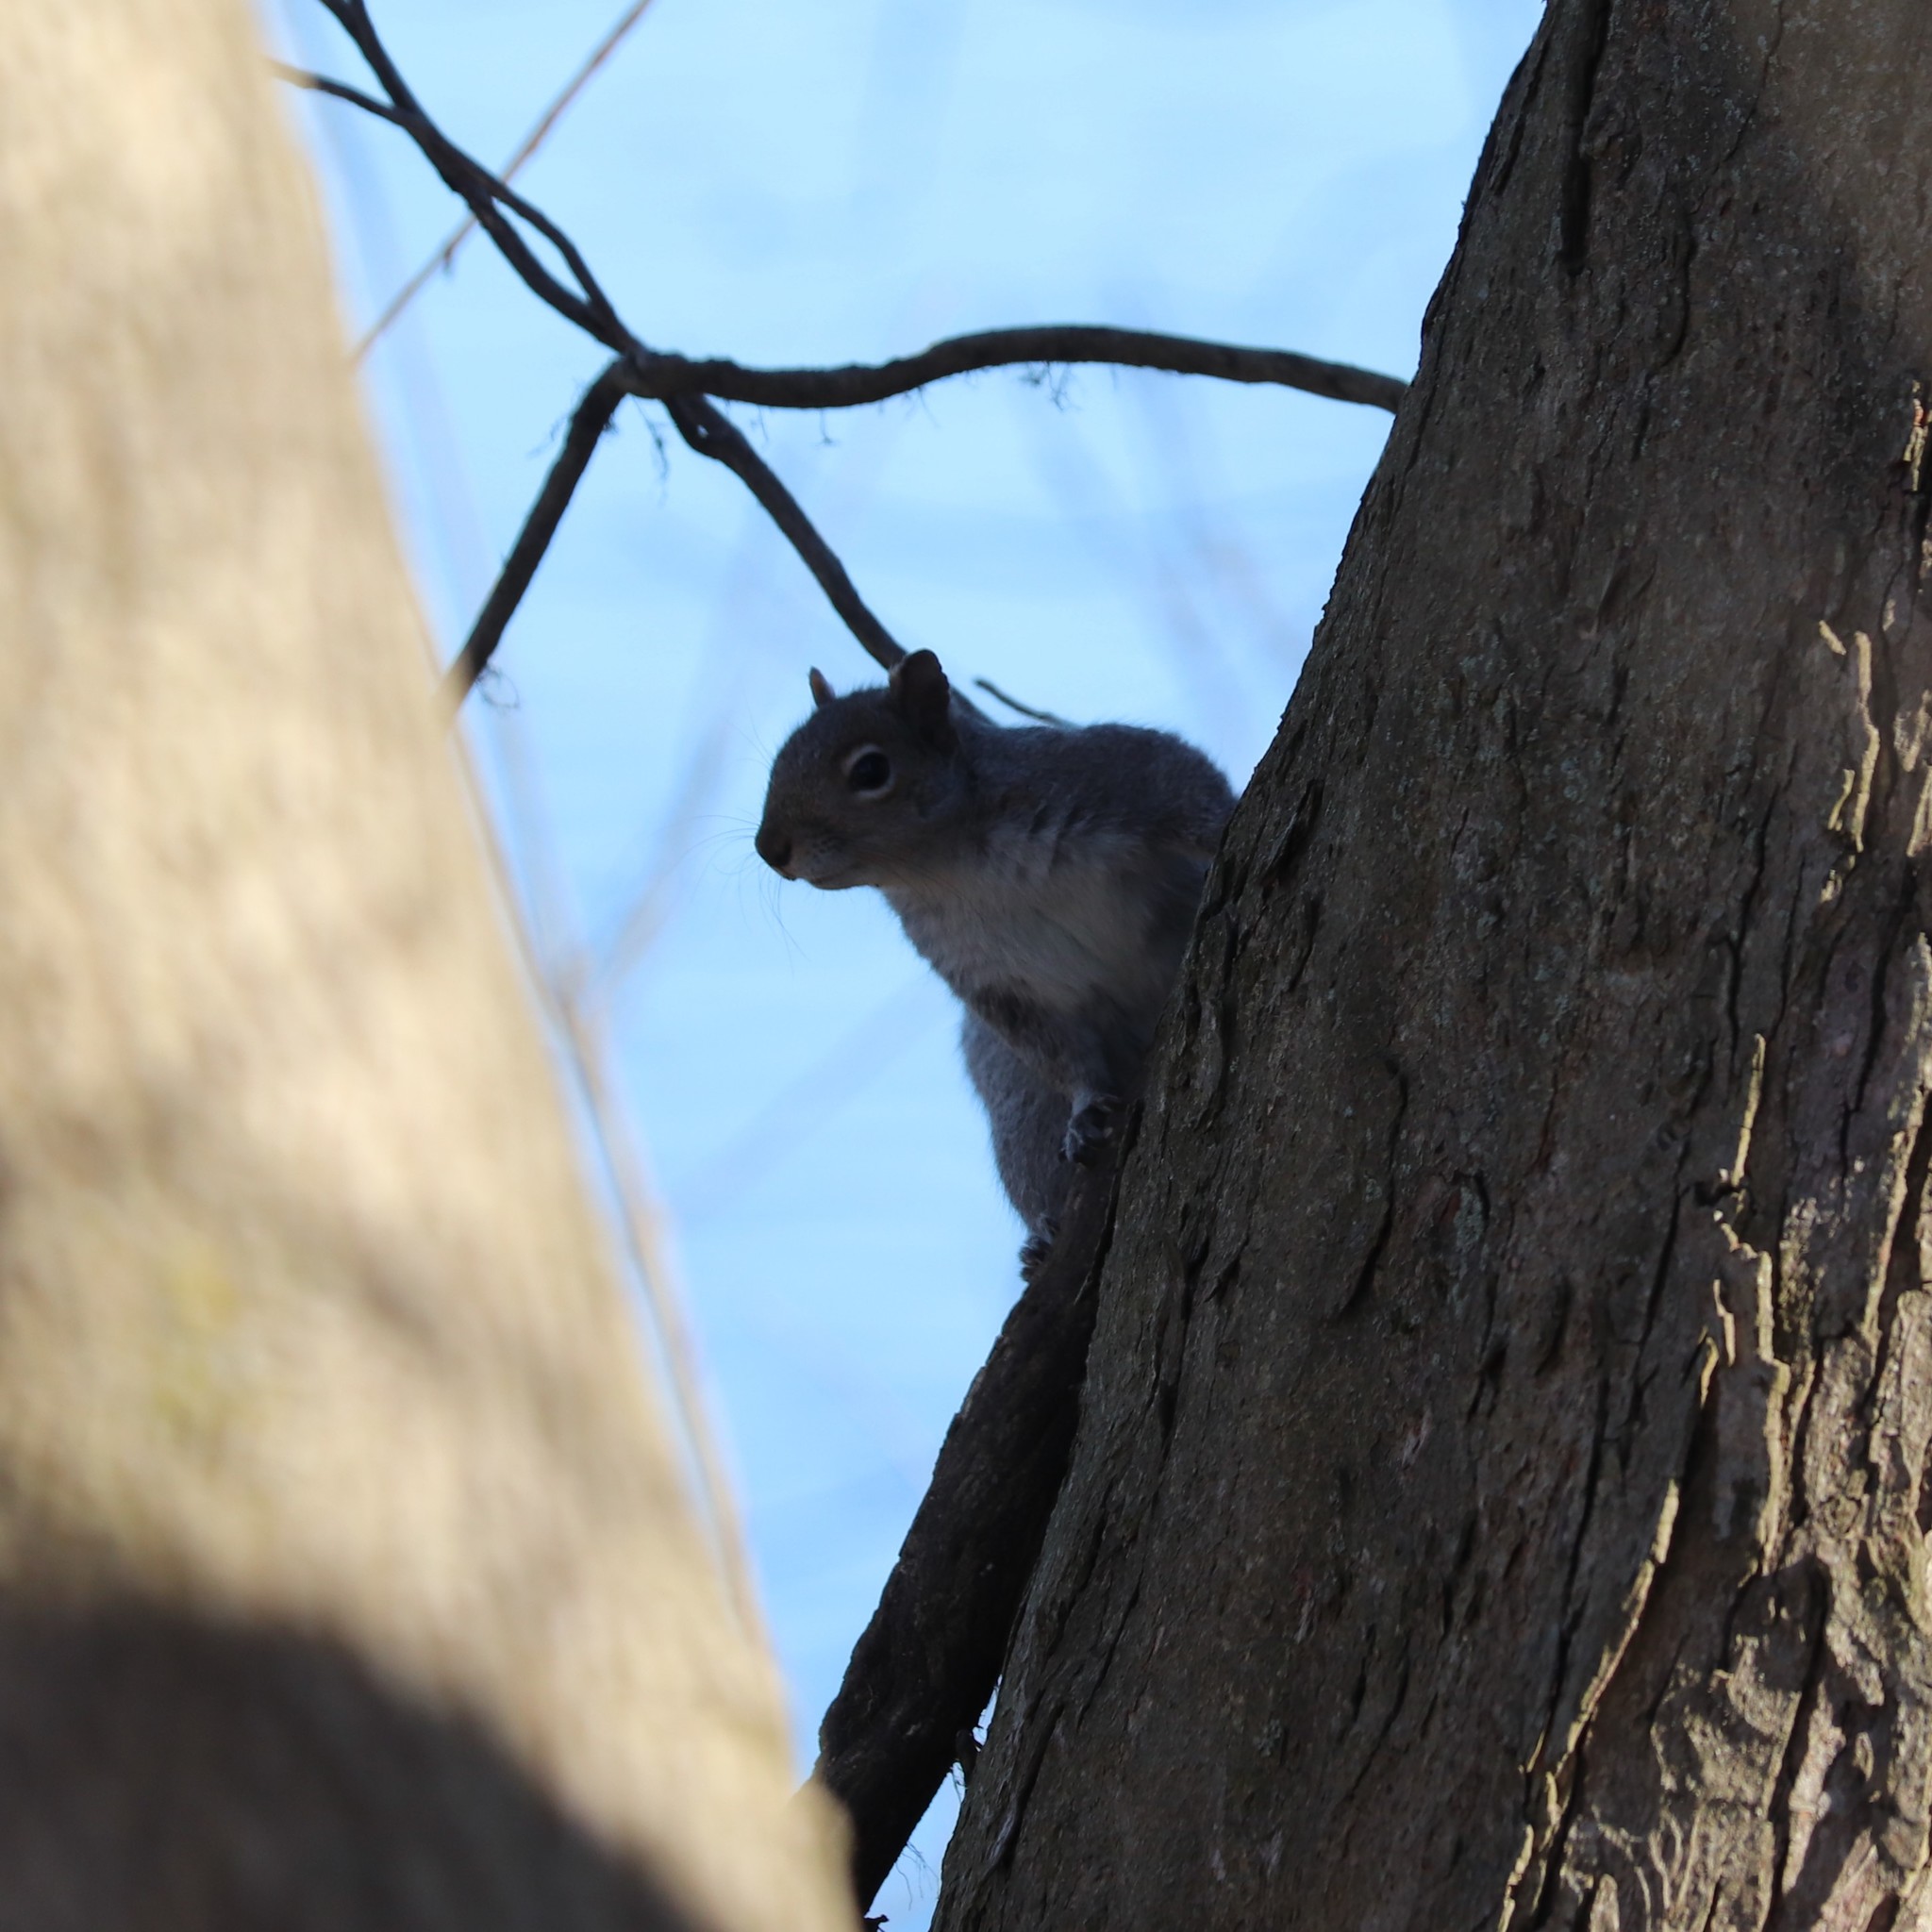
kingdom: Animalia
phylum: Chordata
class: Mammalia
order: Rodentia
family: Sciuridae
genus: Sciurus
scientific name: Sciurus carolinensis
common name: Eastern gray squirrel
